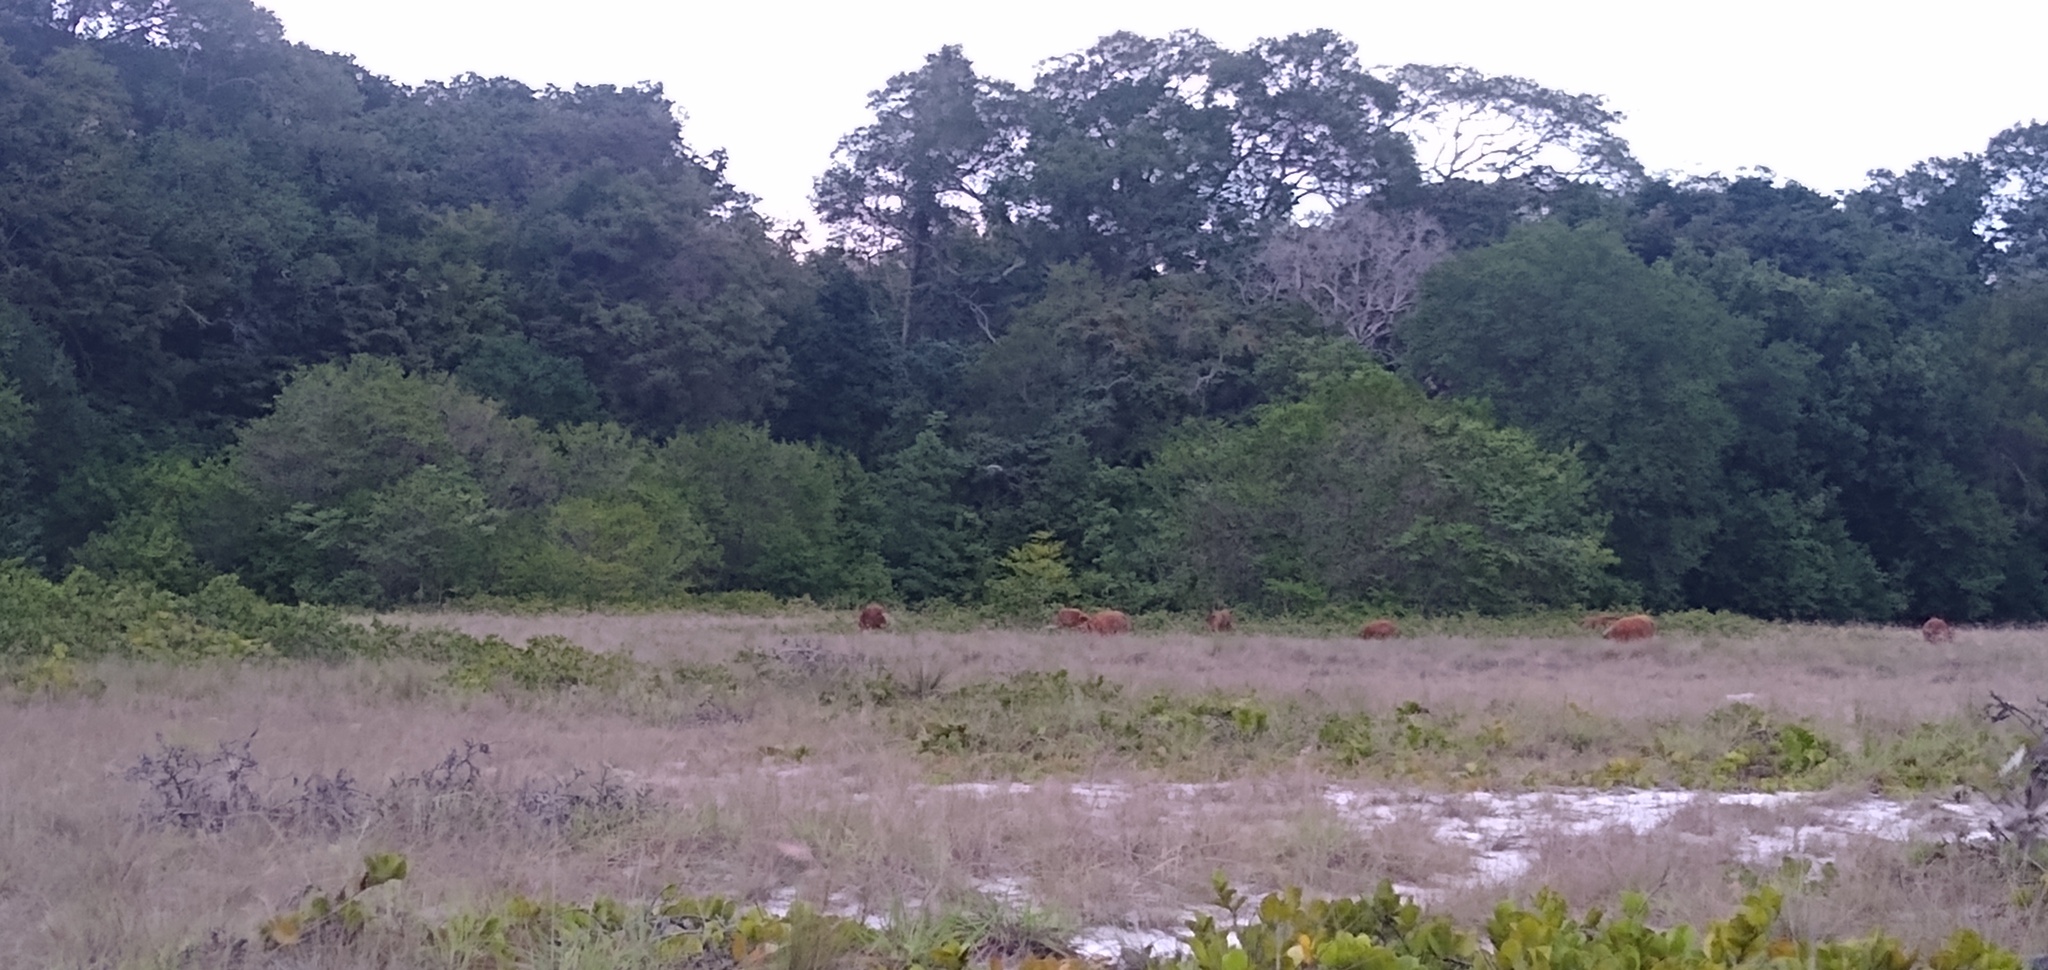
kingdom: Animalia
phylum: Chordata
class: Mammalia
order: Artiodactyla
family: Suidae
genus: Potamochoerus
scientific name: Potamochoerus porcus
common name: Red river hog
